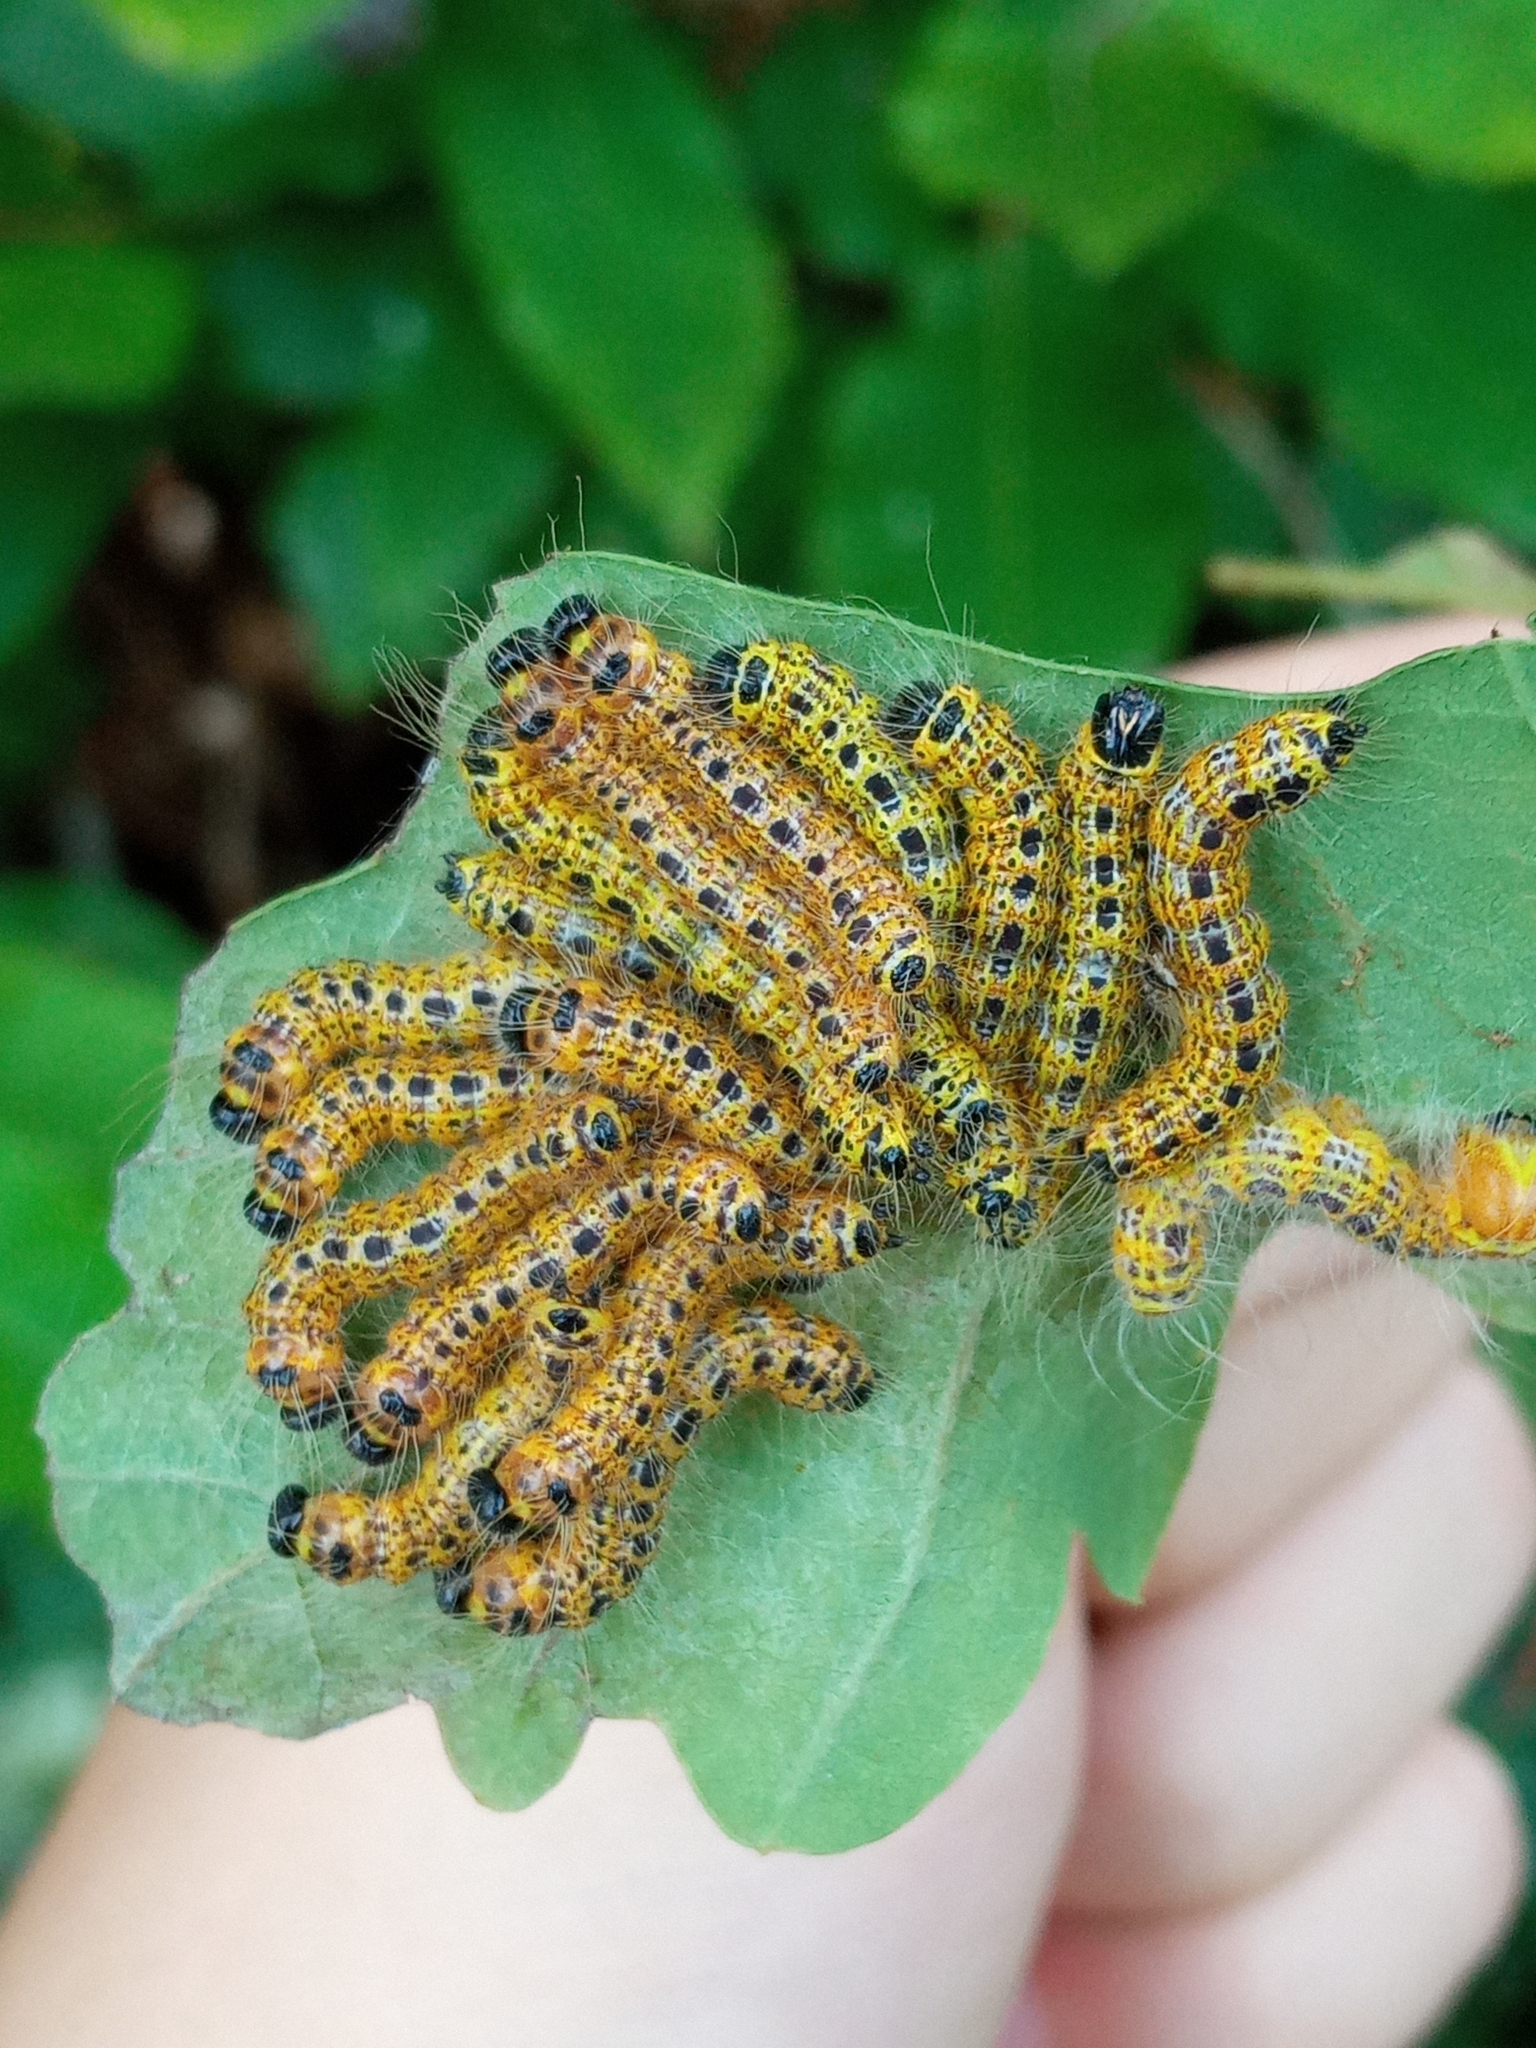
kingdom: Animalia
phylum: Arthropoda
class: Insecta
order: Lepidoptera
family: Notodontidae
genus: Phalera
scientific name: Phalera bucephala
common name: Buff-tip
